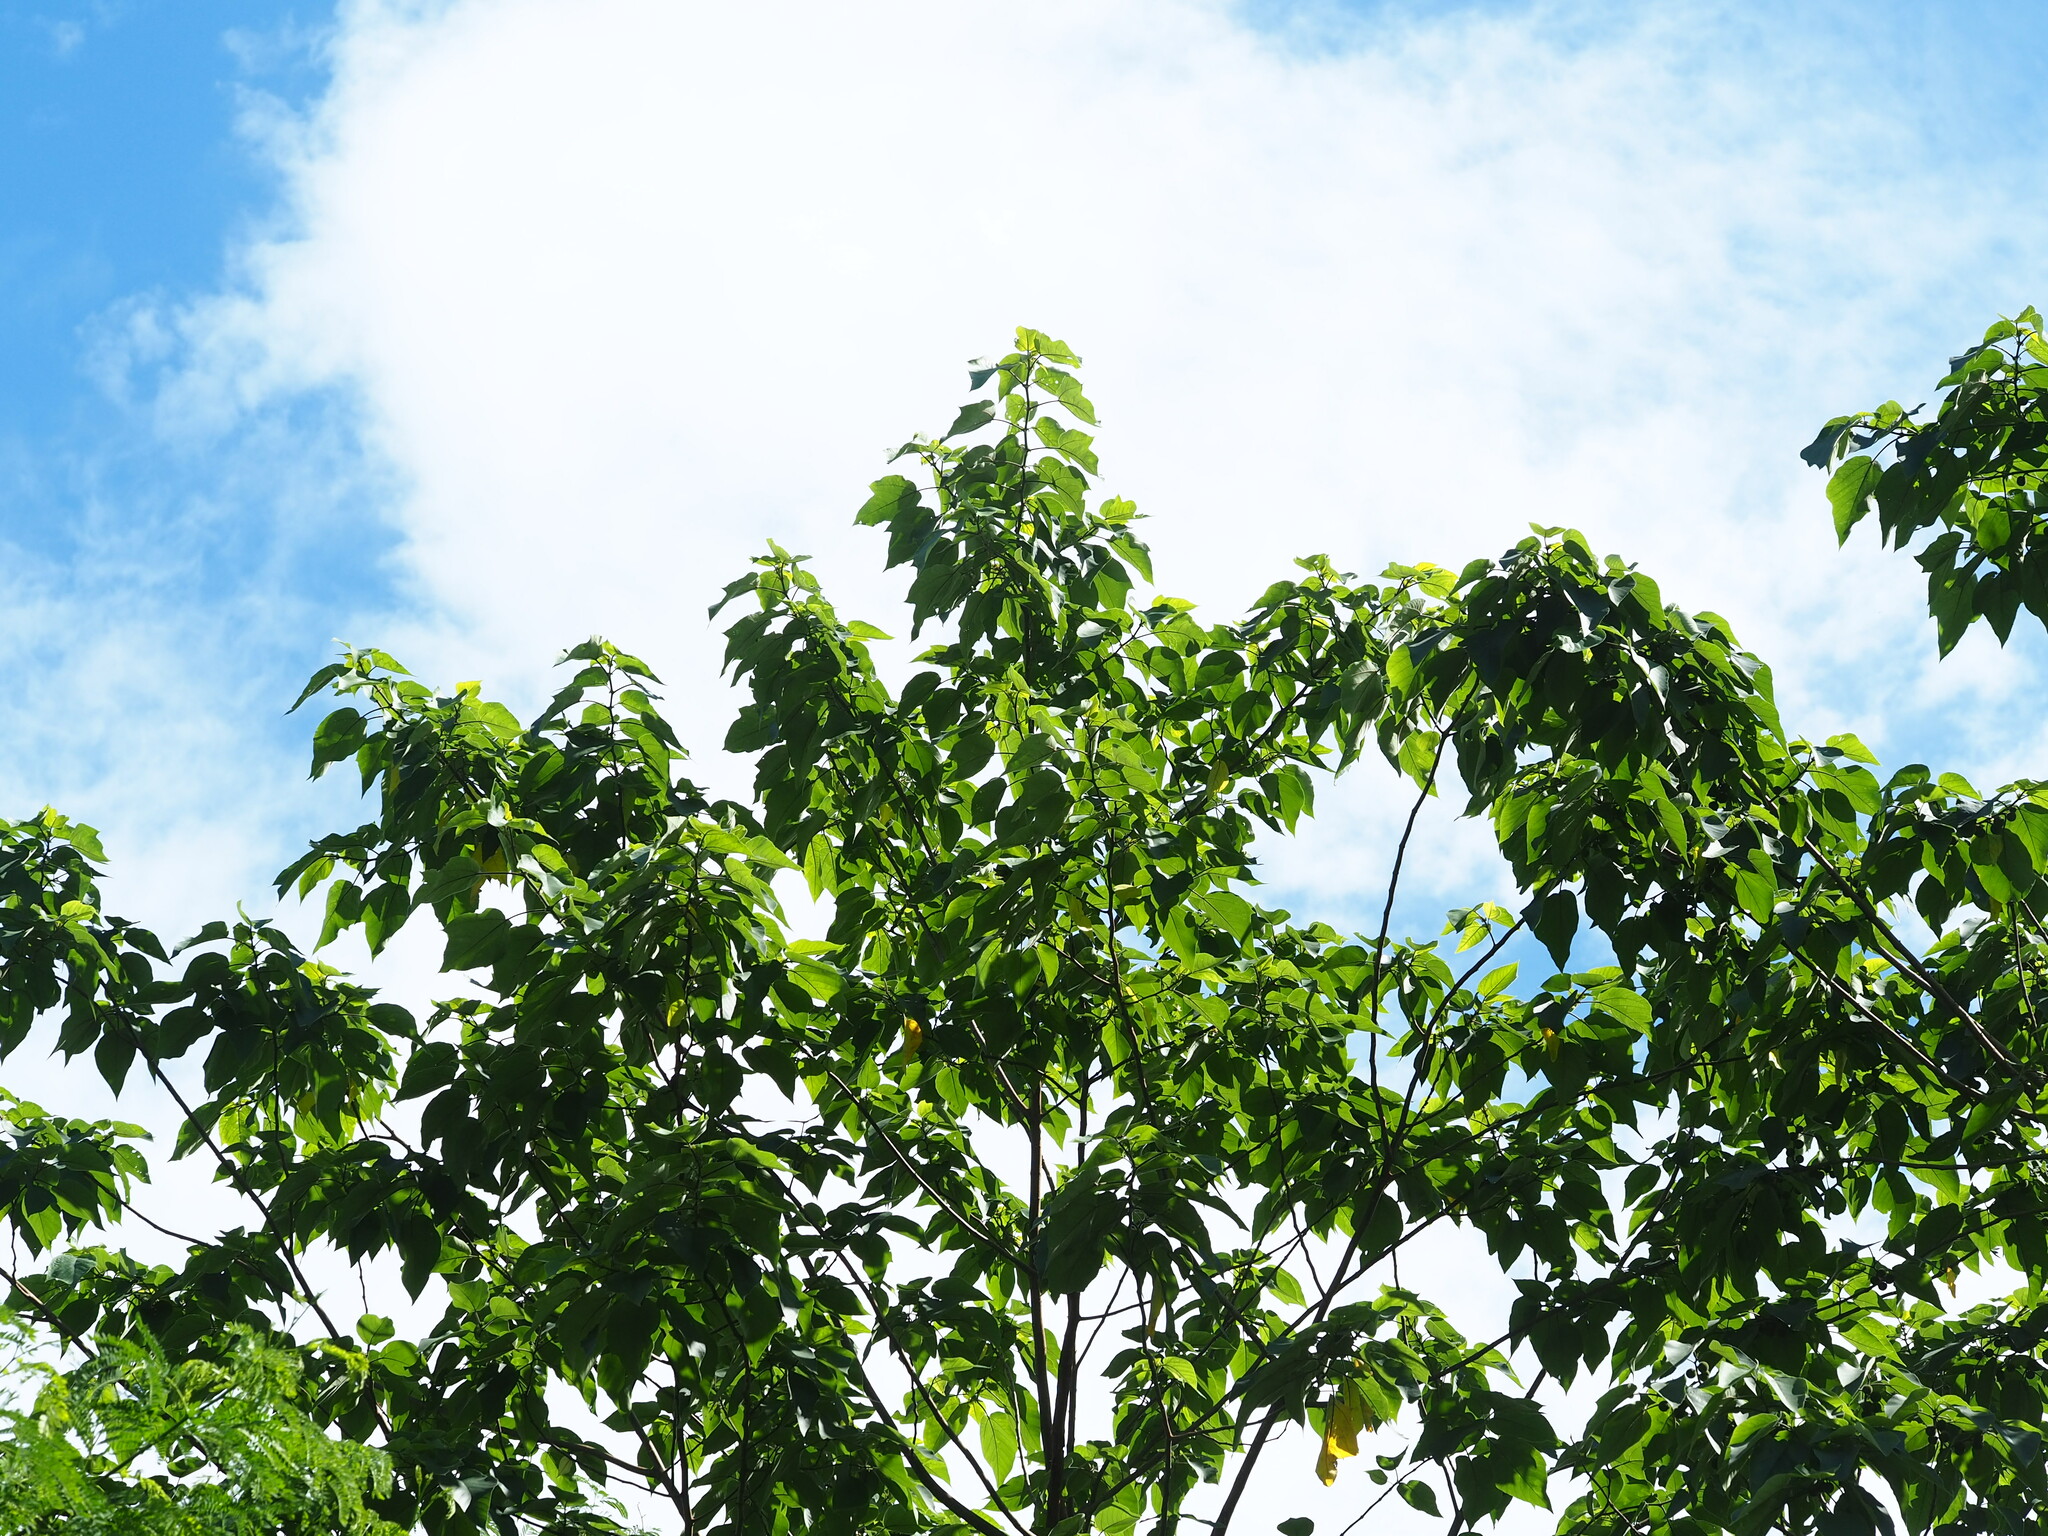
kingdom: Plantae
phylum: Tracheophyta
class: Magnoliopsida
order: Rosales
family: Moraceae
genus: Broussonetia
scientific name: Broussonetia papyrifera
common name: Paper mulberry
